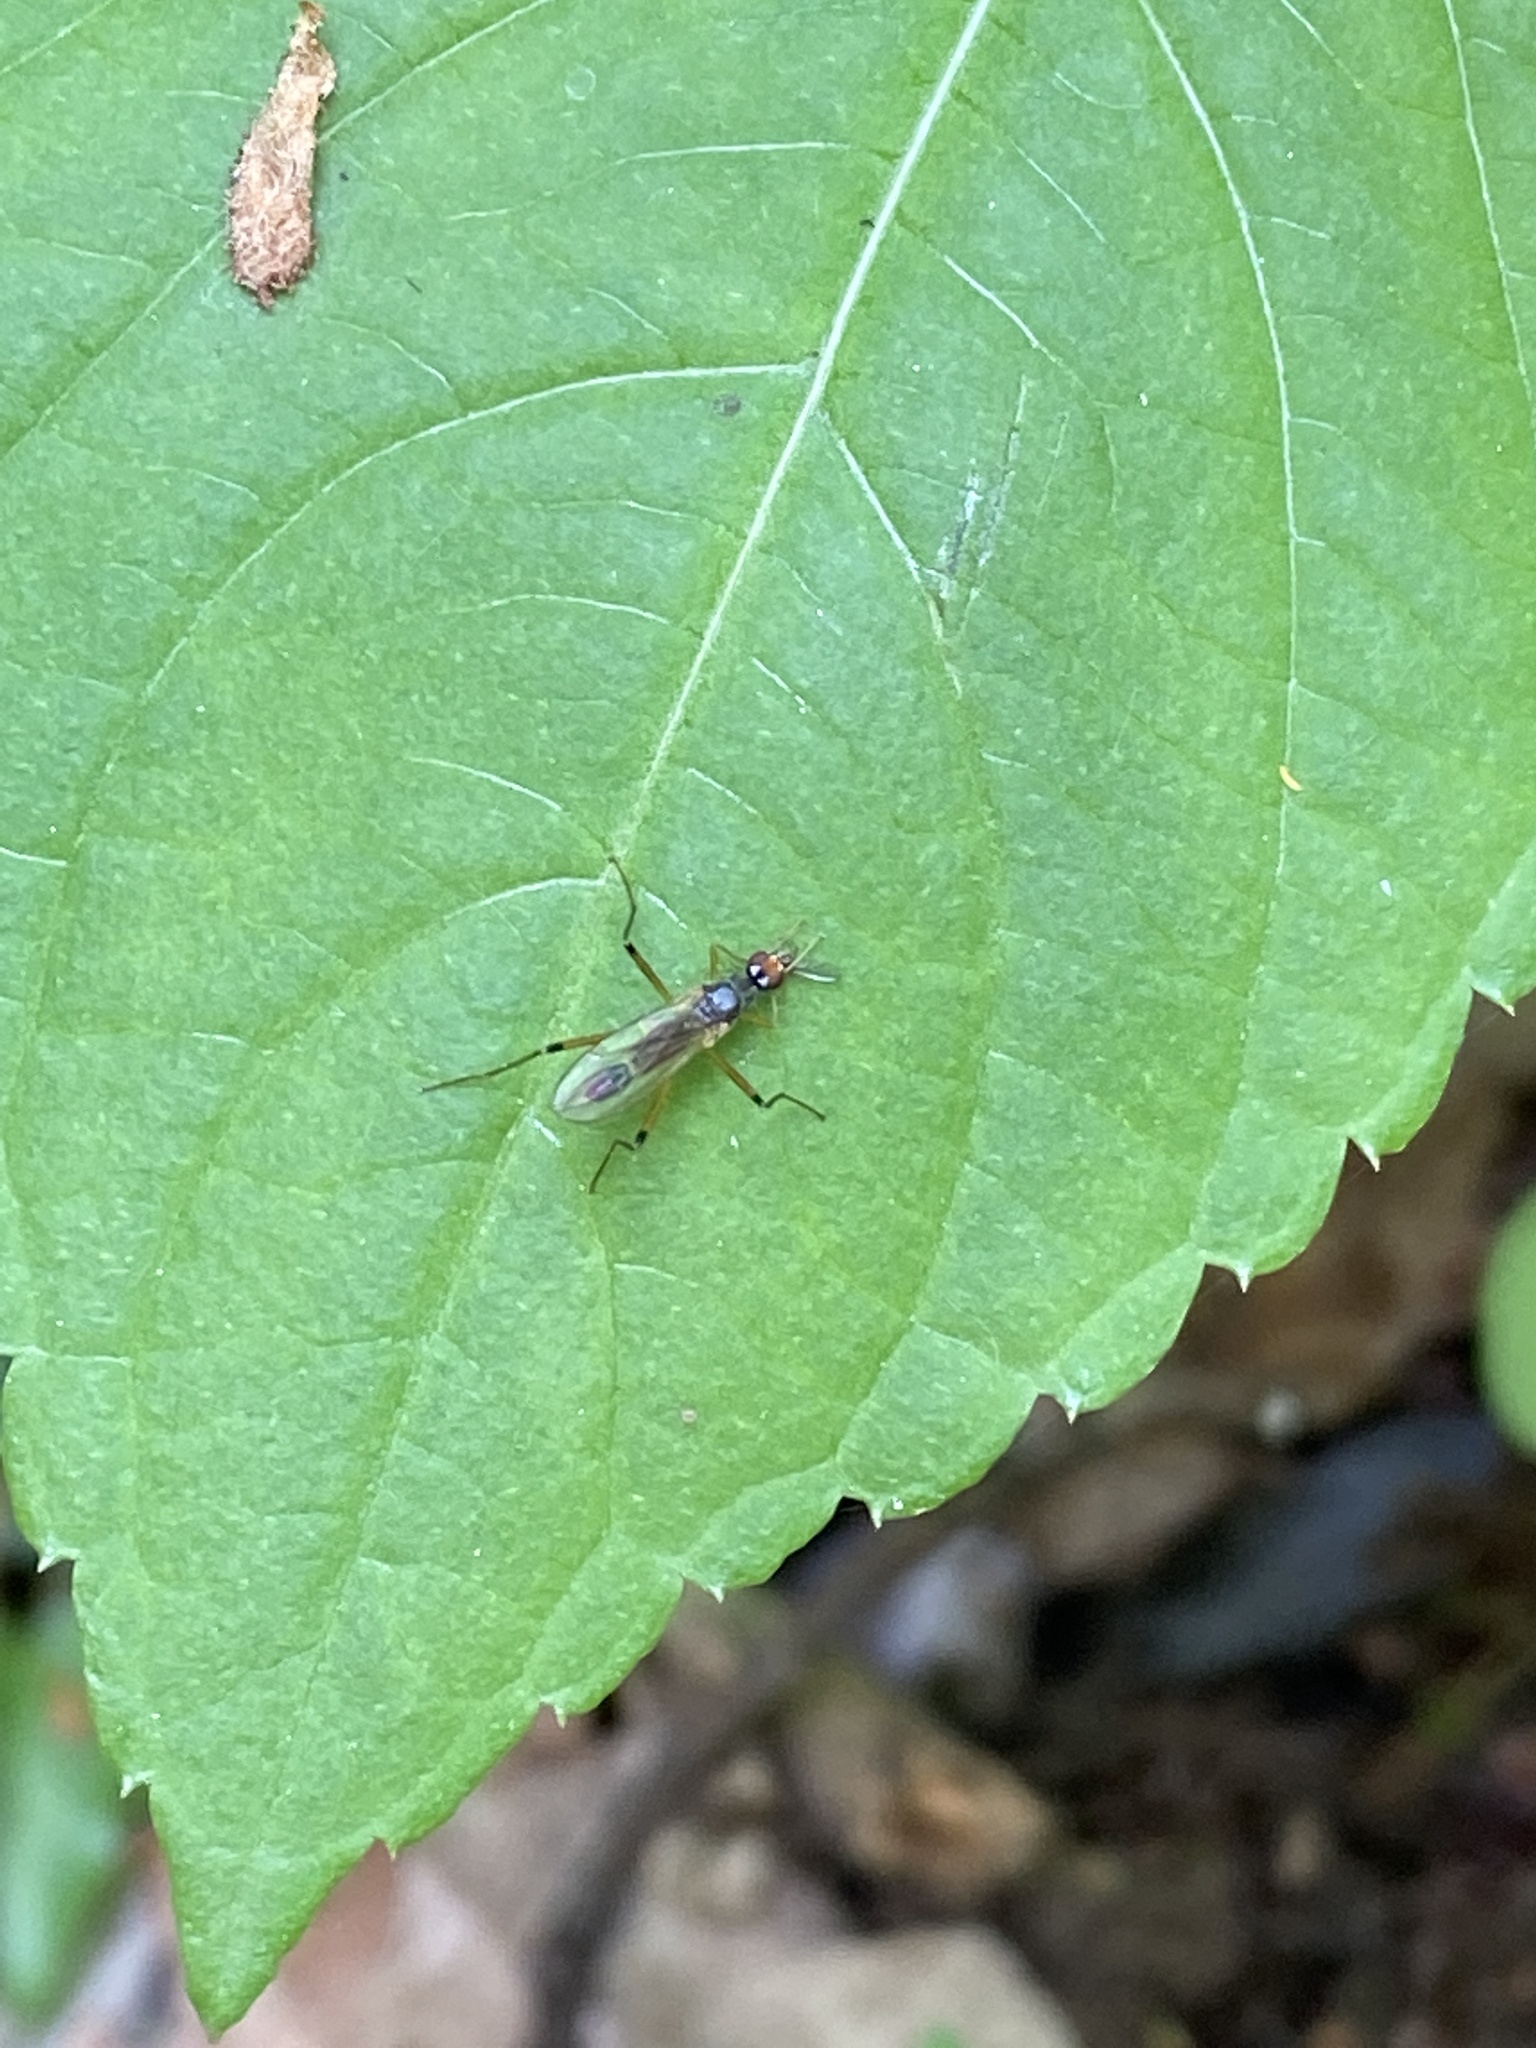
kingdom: Animalia
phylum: Arthropoda
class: Insecta
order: Diptera
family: Micropezidae
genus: Compsobata
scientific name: Compsobata cibaria
